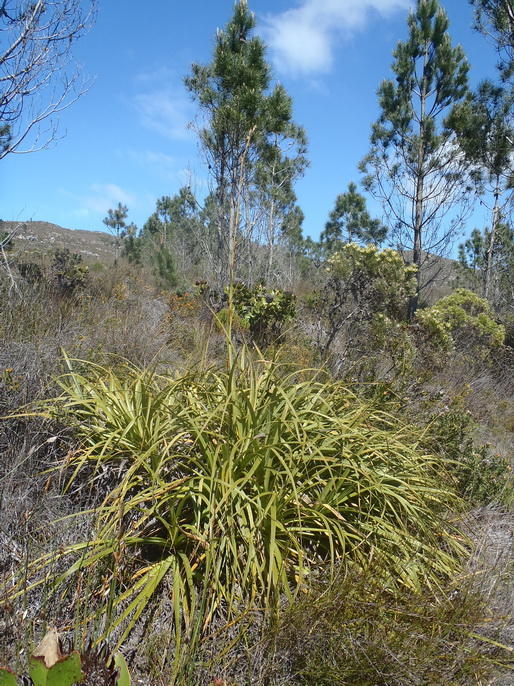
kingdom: Plantae
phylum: Tracheophyta
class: Liliopsida
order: Poales
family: Cyperaceae
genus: Tetraria
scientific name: Tetraria thermalis
